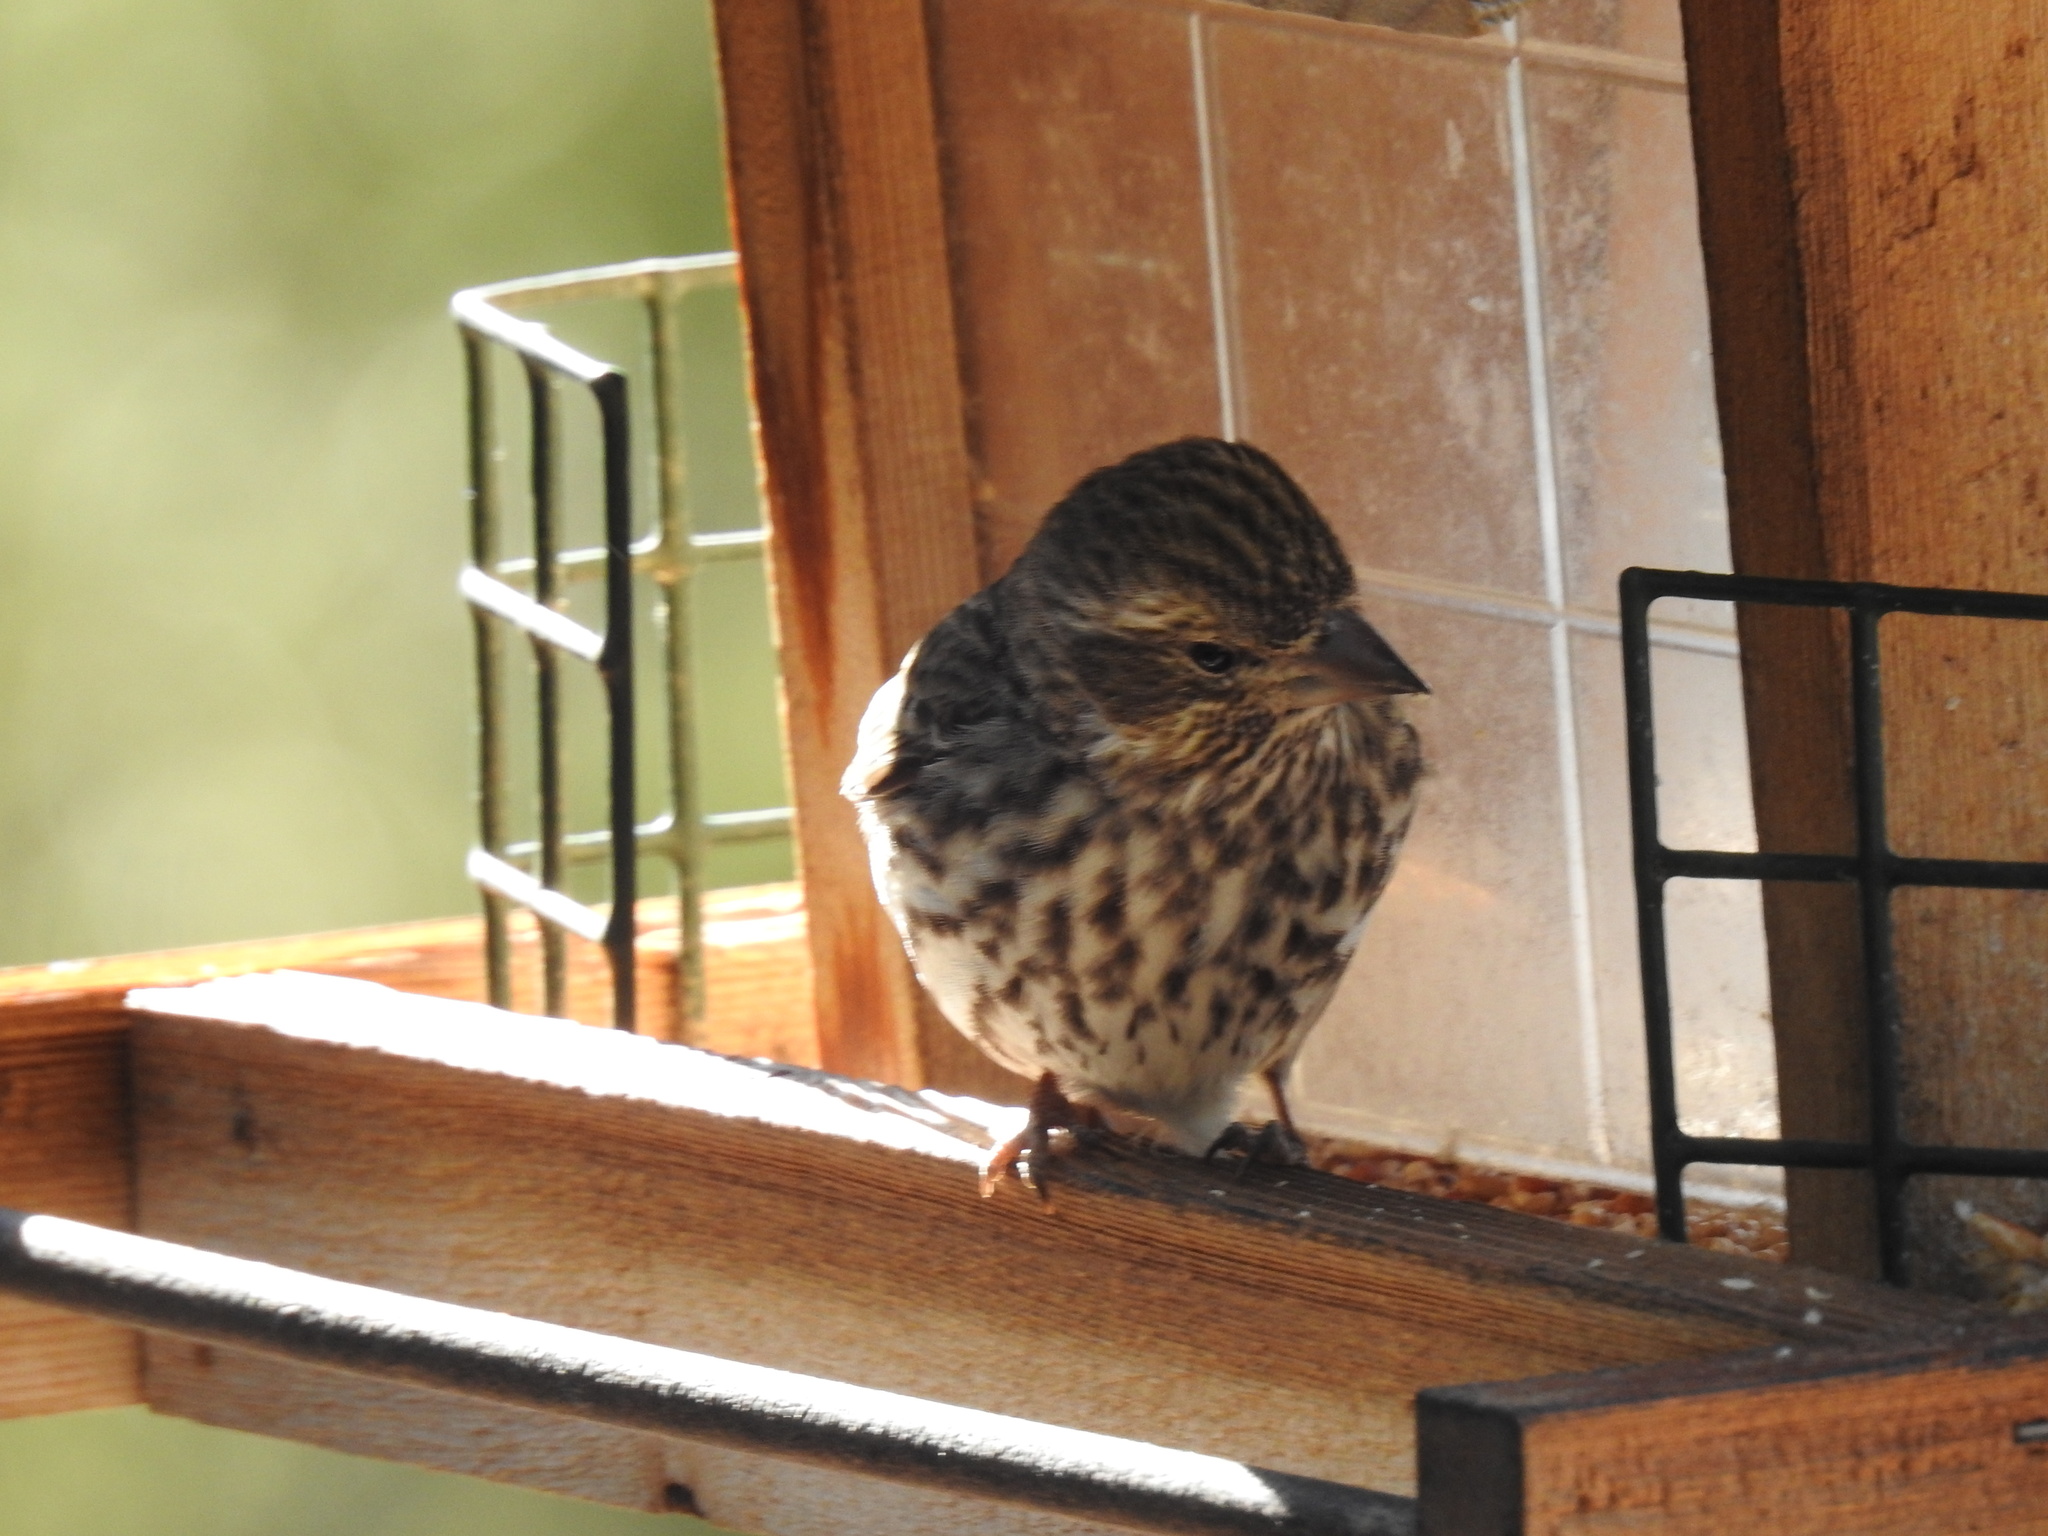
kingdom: Animalia
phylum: Chordata
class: Aves
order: Passeriformes
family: Fringillidae
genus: Haemorhous
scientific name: Haemorhous cassinii
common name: Cassin's finch
